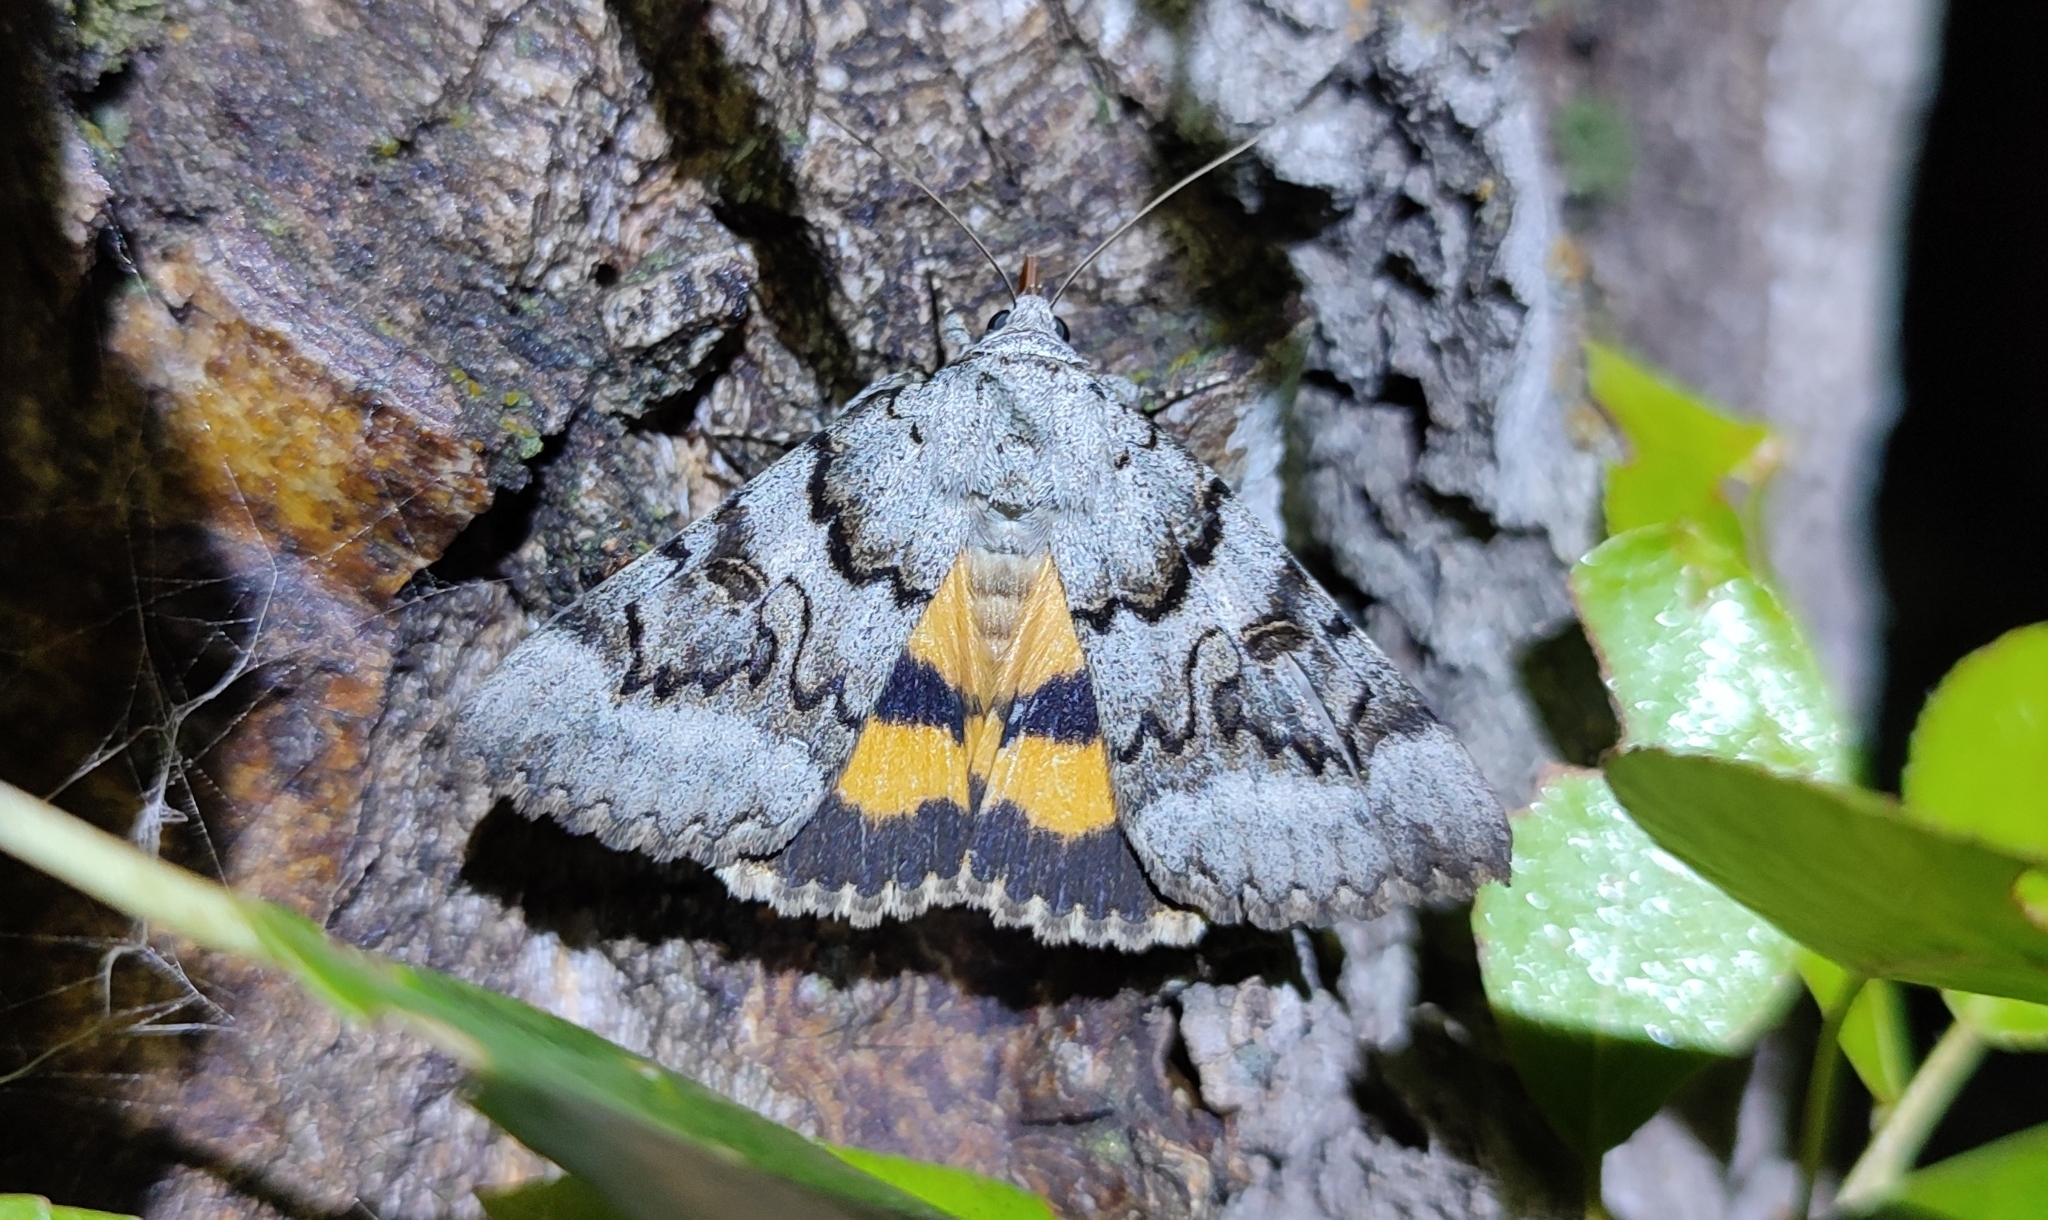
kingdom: Animalia
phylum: Arthropoda
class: Insecta
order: Lepidoptera
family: Erebidae
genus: Catocala
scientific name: Catocala neonympha
